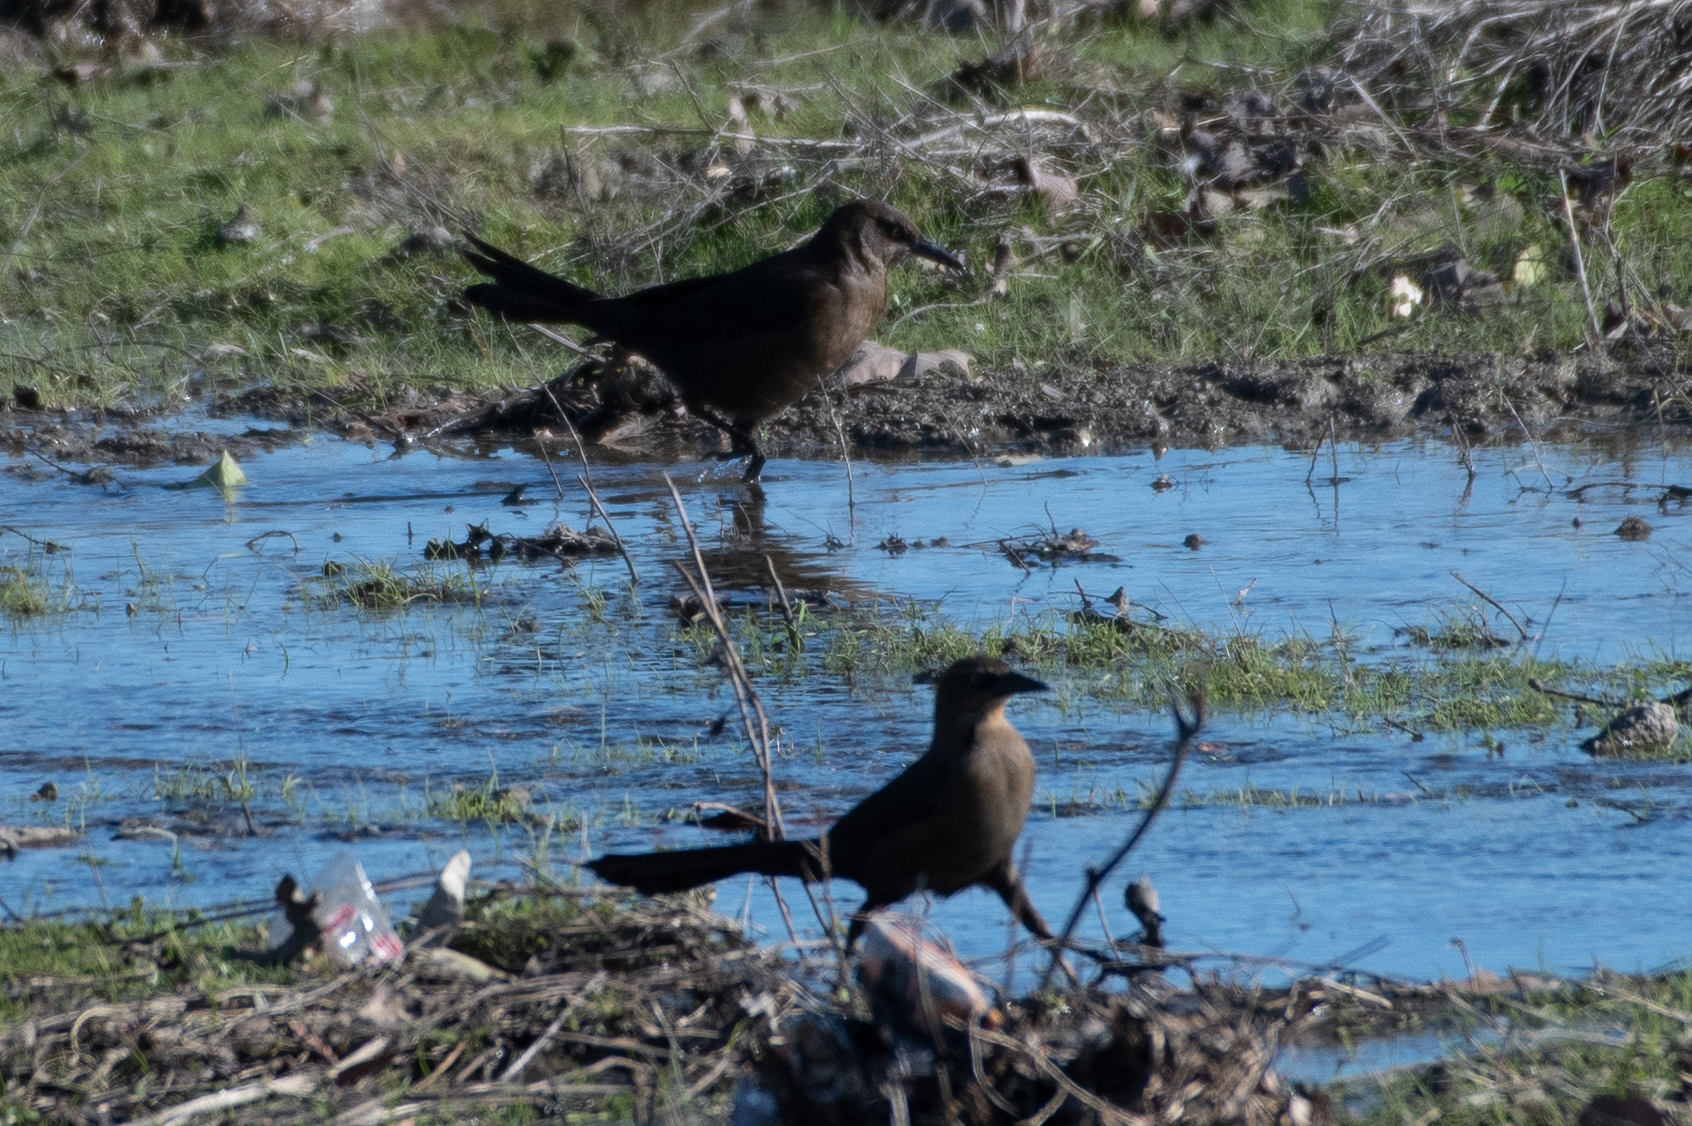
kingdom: Animalia
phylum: Chordata
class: Aves
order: Passeriformes
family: Icteridae
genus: Quiscalus
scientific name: Quiscalus mexicanus
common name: Great-tailed grackle
